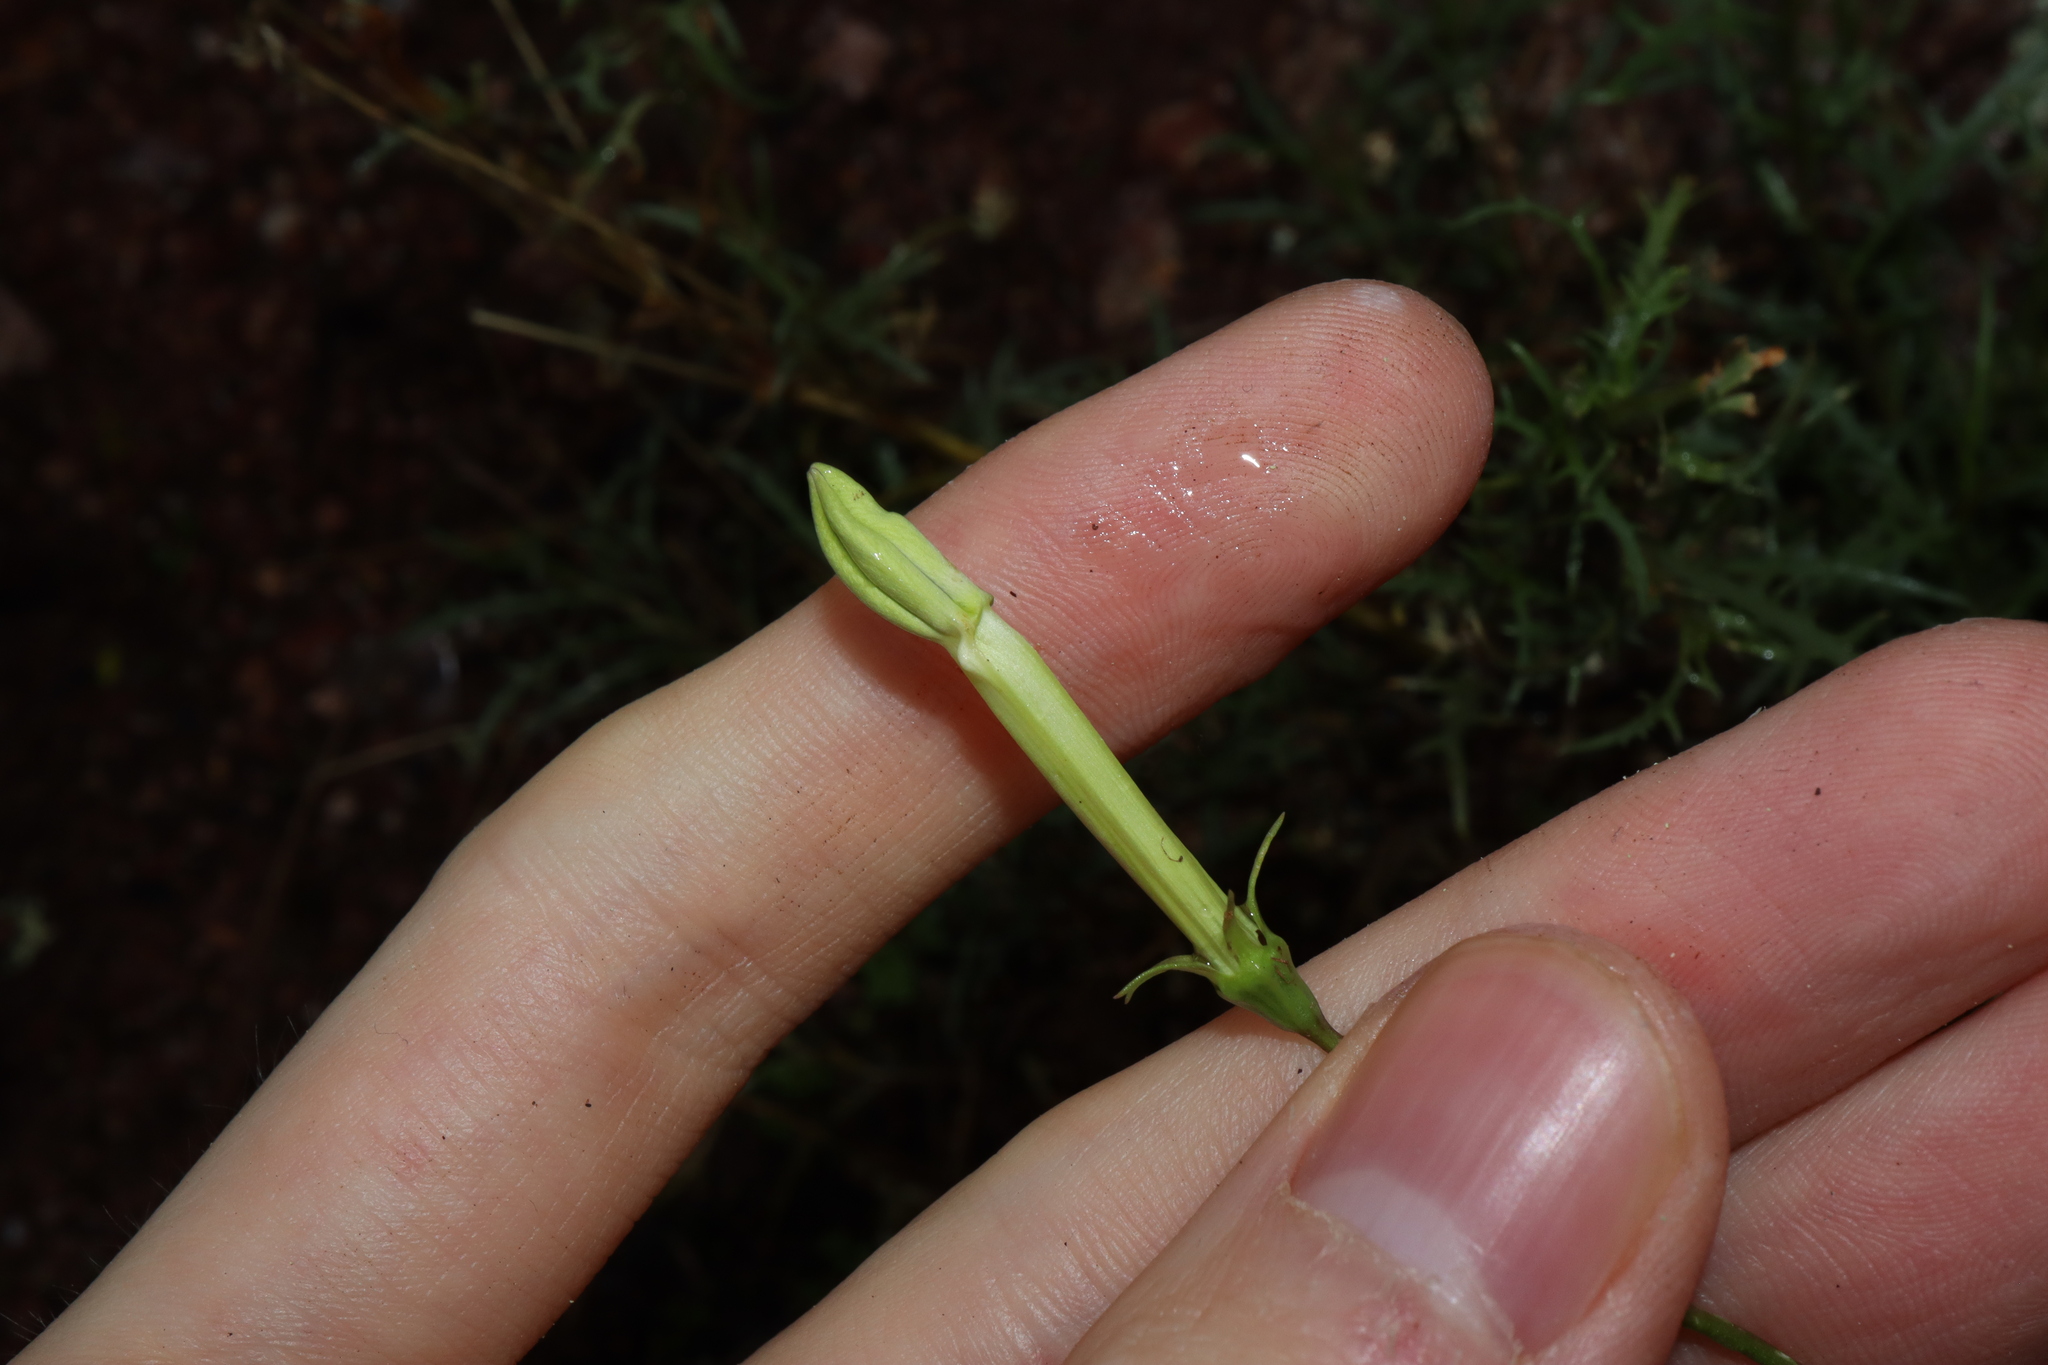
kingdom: Plantae
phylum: Tracheophyta
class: Magnoliopsida
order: Asterales
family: Campanulaceae
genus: Lithotoma
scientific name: Lithotoma axillaris
